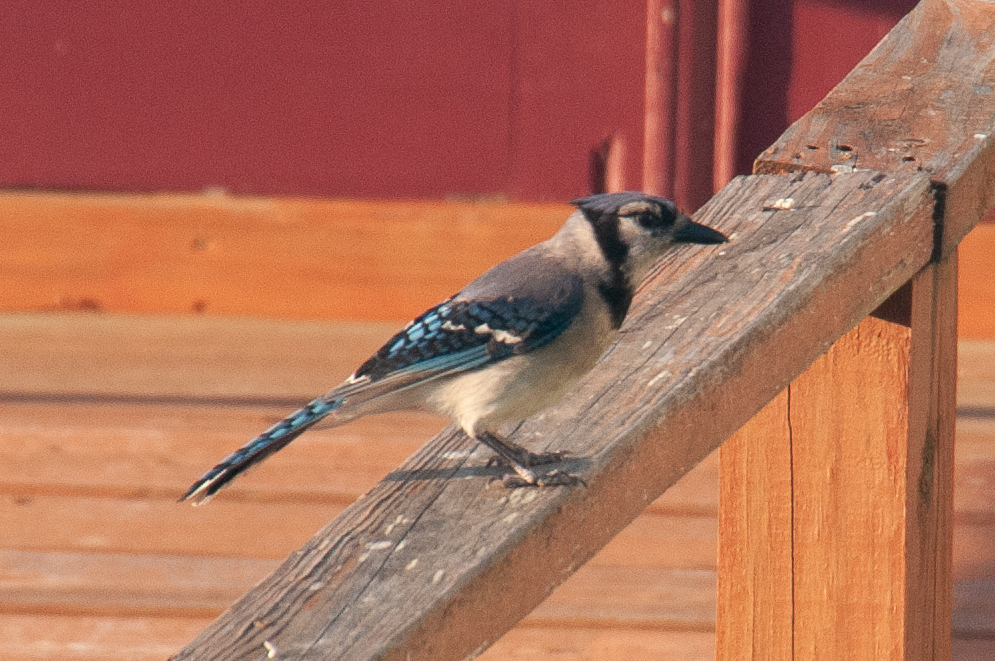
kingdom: Animalia
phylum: Chordata
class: Aves
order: Passeriformes
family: Corvidae
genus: Cyanocitta
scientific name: Cyanocitta cristata
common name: Blue jay
